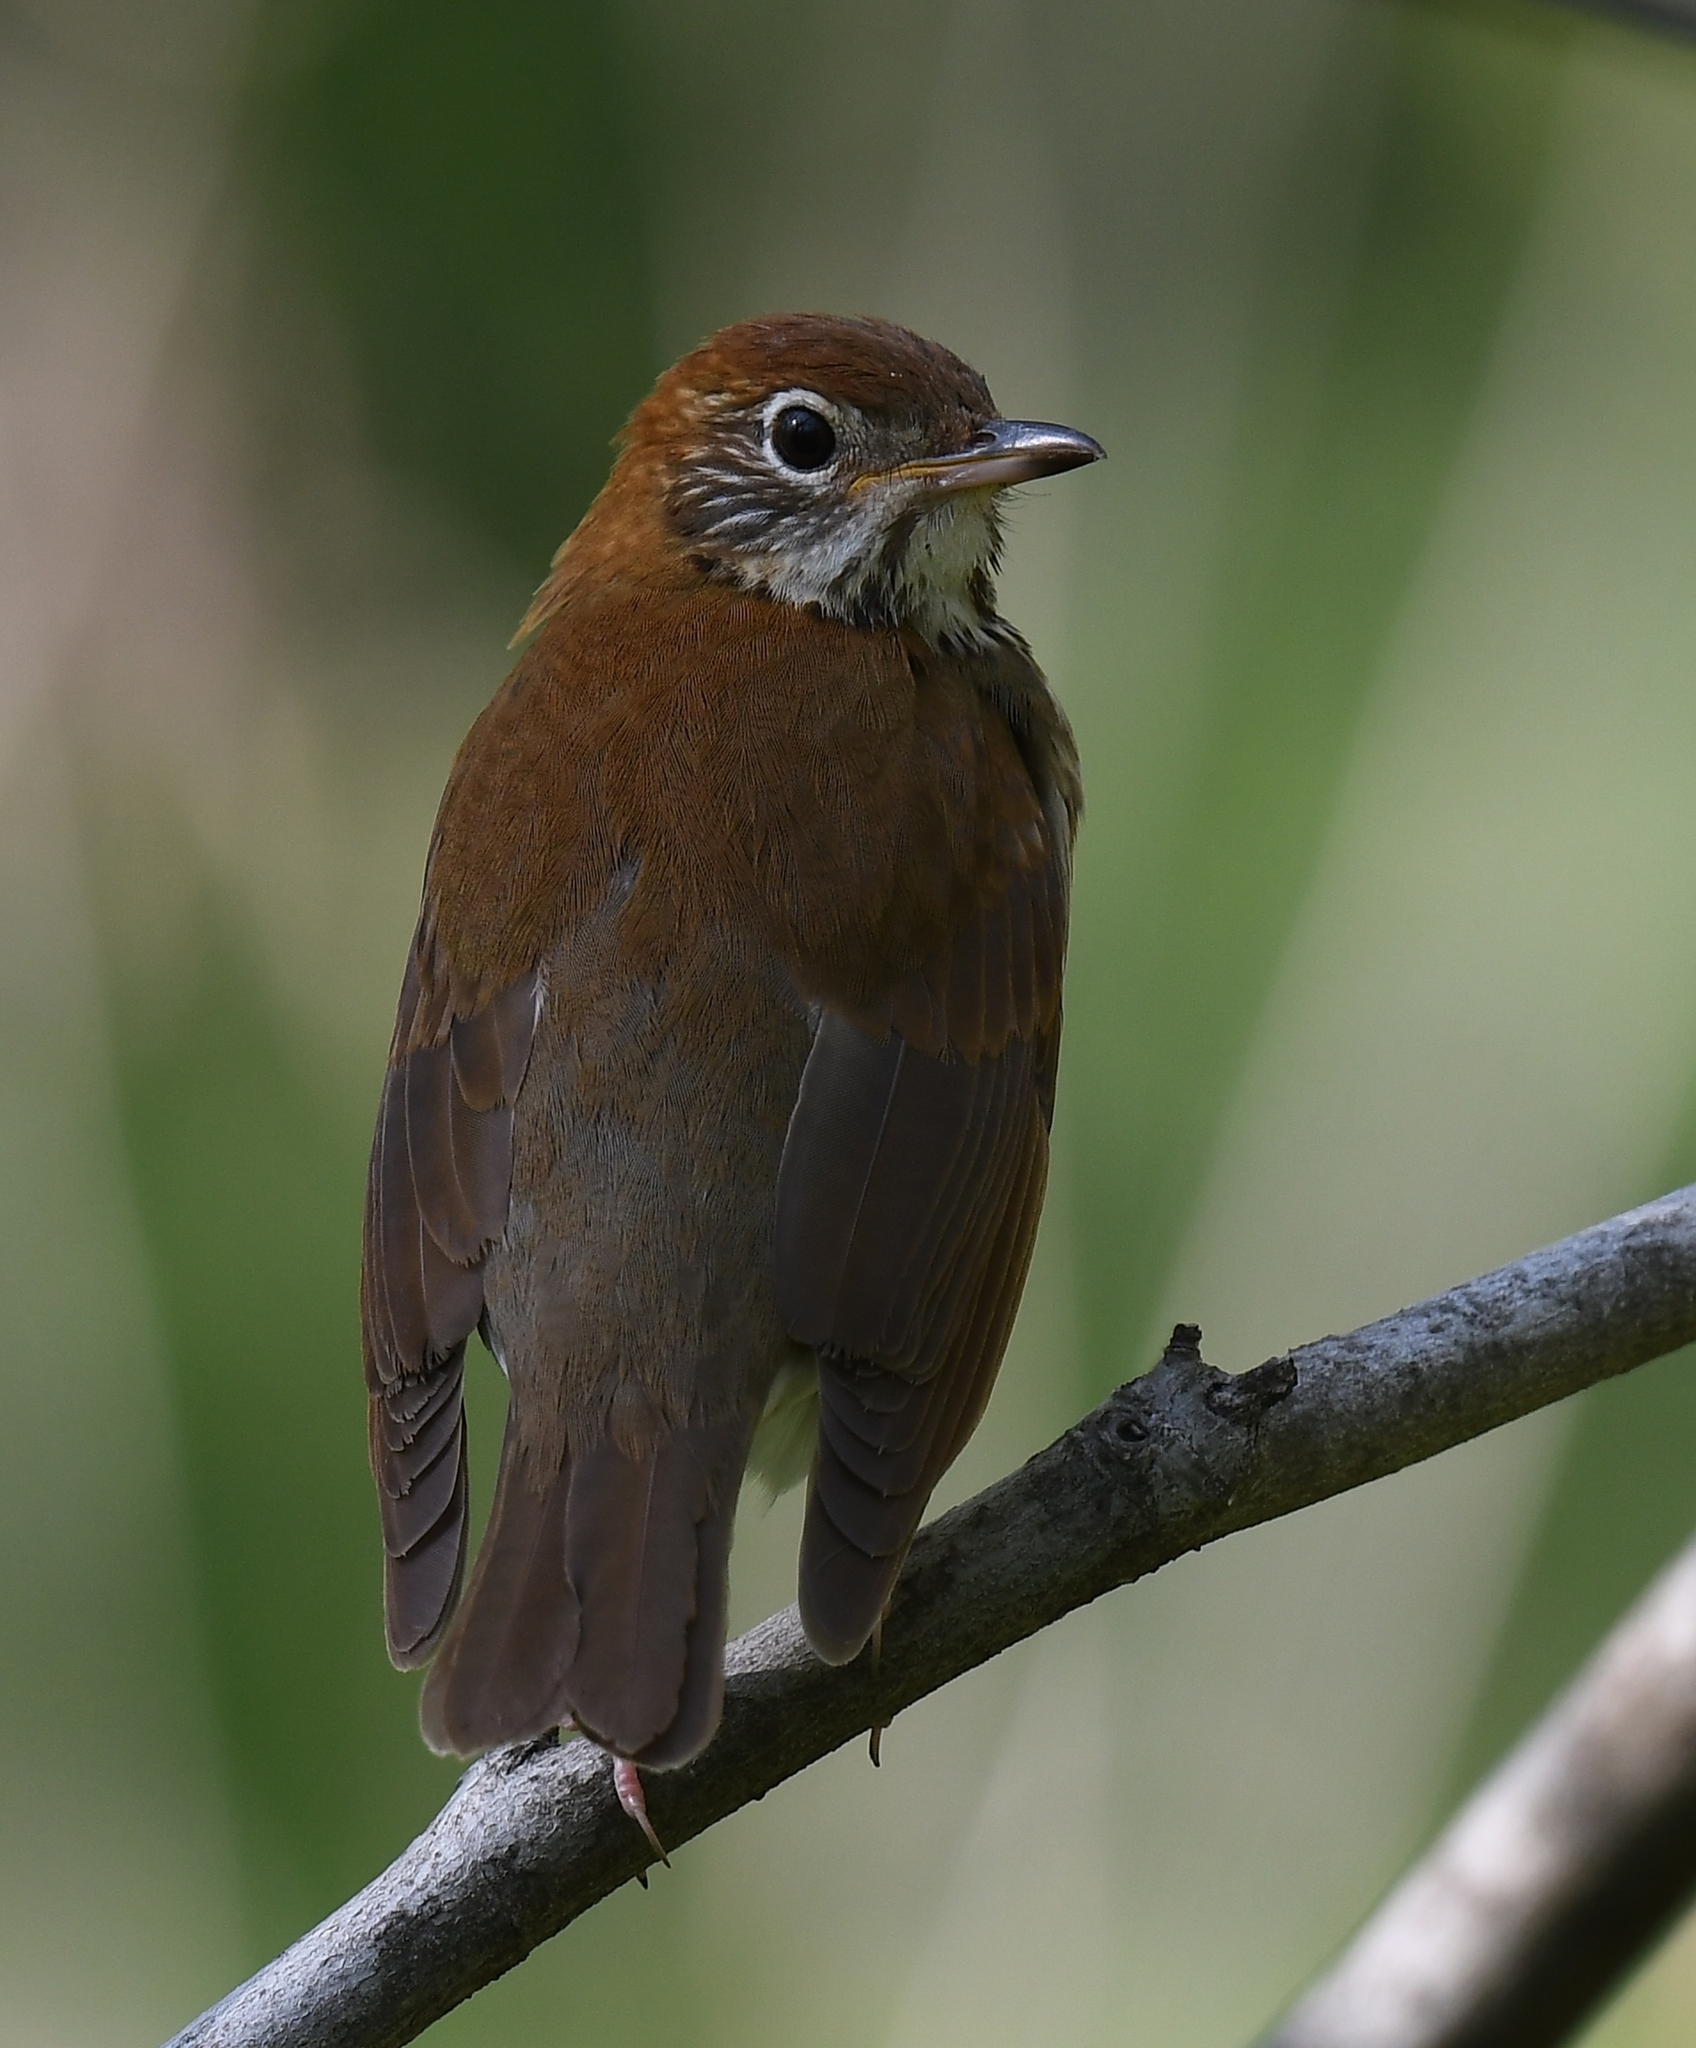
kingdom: Animalia
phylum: Chordata
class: Aves
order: Passeriformes
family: Turdidae
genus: Hylocichla
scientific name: Hylocichla mustelina
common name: Wood thrush
